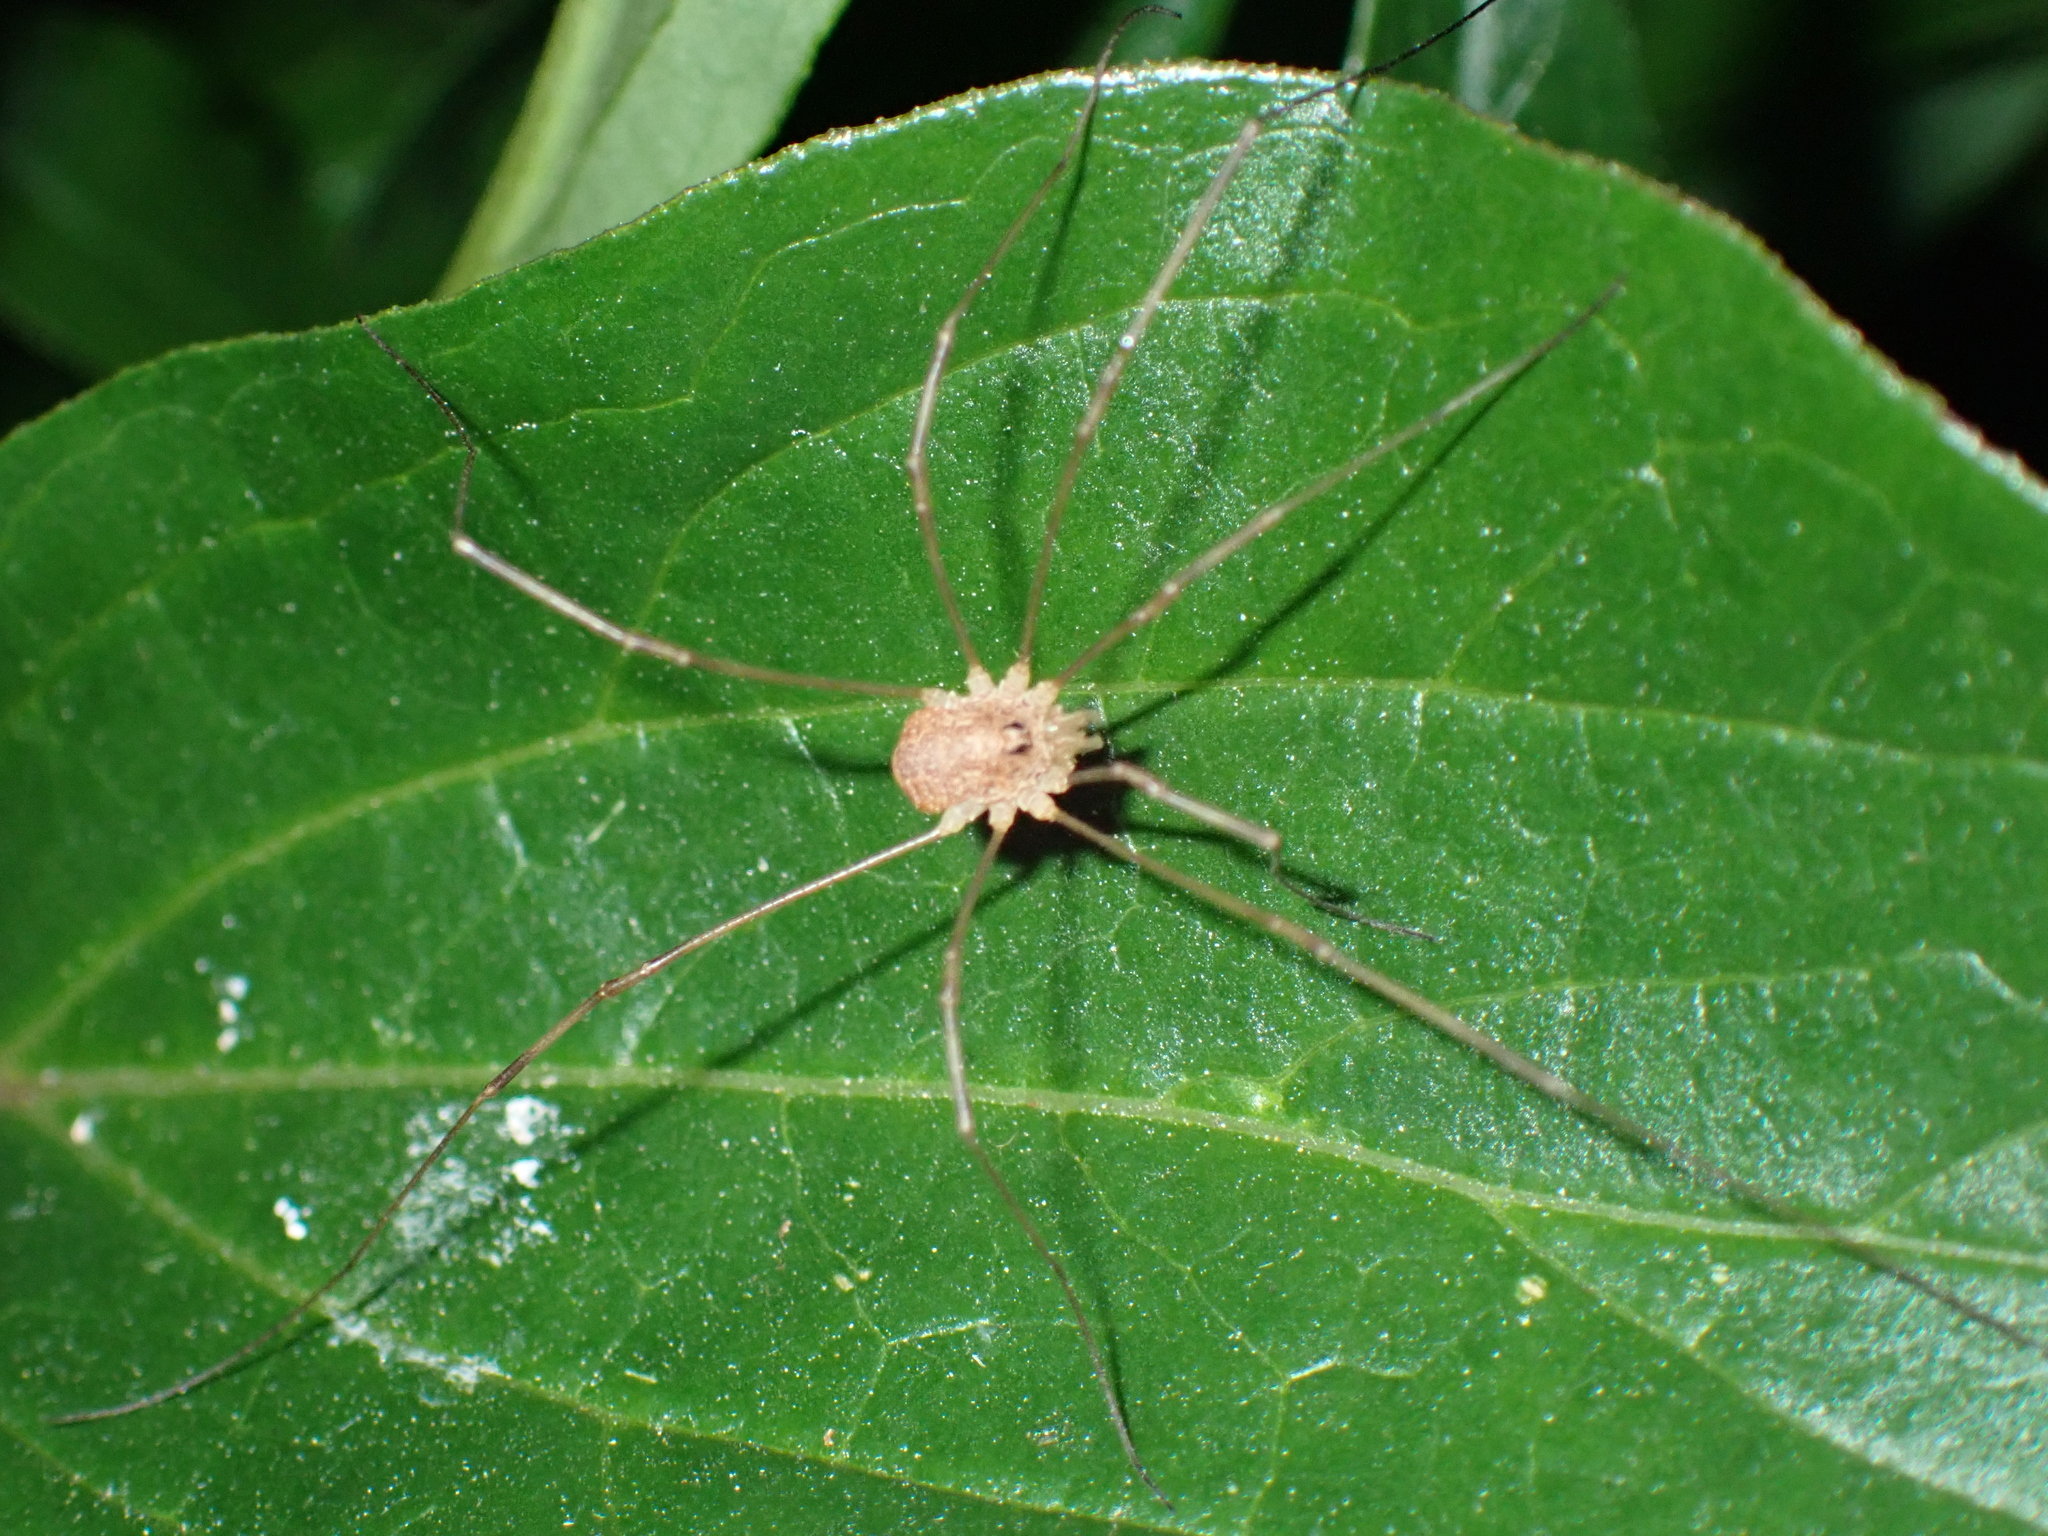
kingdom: Animalia
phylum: Arthropoda
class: Arachnida
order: Opiliones
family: Phalangiidae
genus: Rilaena
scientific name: Rilaena triangularis
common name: Spring harvestman
